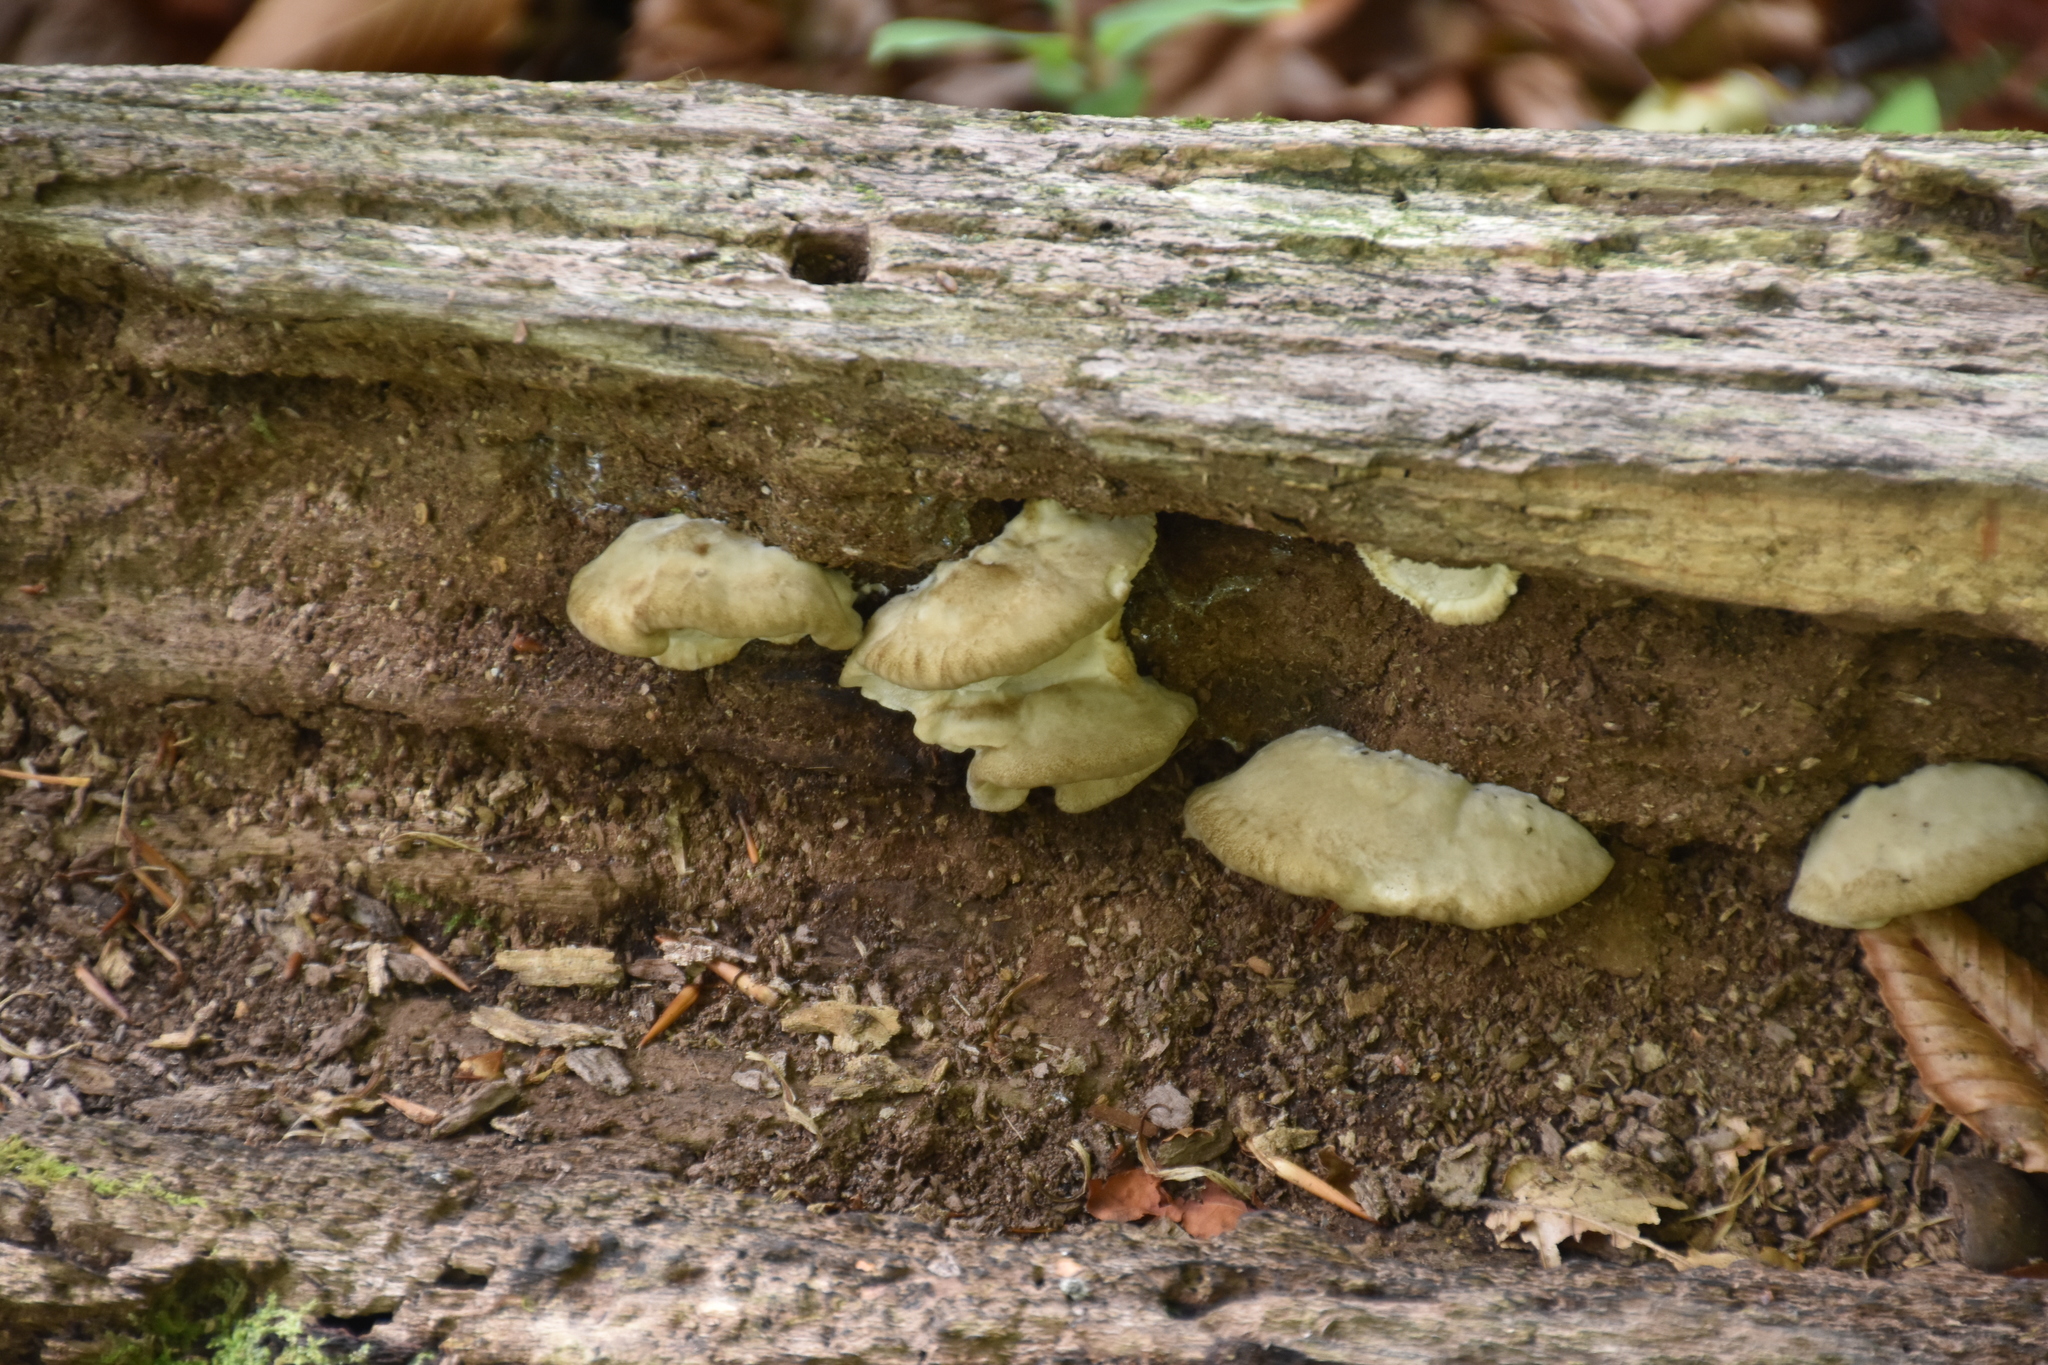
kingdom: Fungi
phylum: Basidiomycota
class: Agaricomycetes
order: Agaricales
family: Crepidotaceae
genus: Crepidotus
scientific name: Crepidotus applanatus
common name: Flat crep
